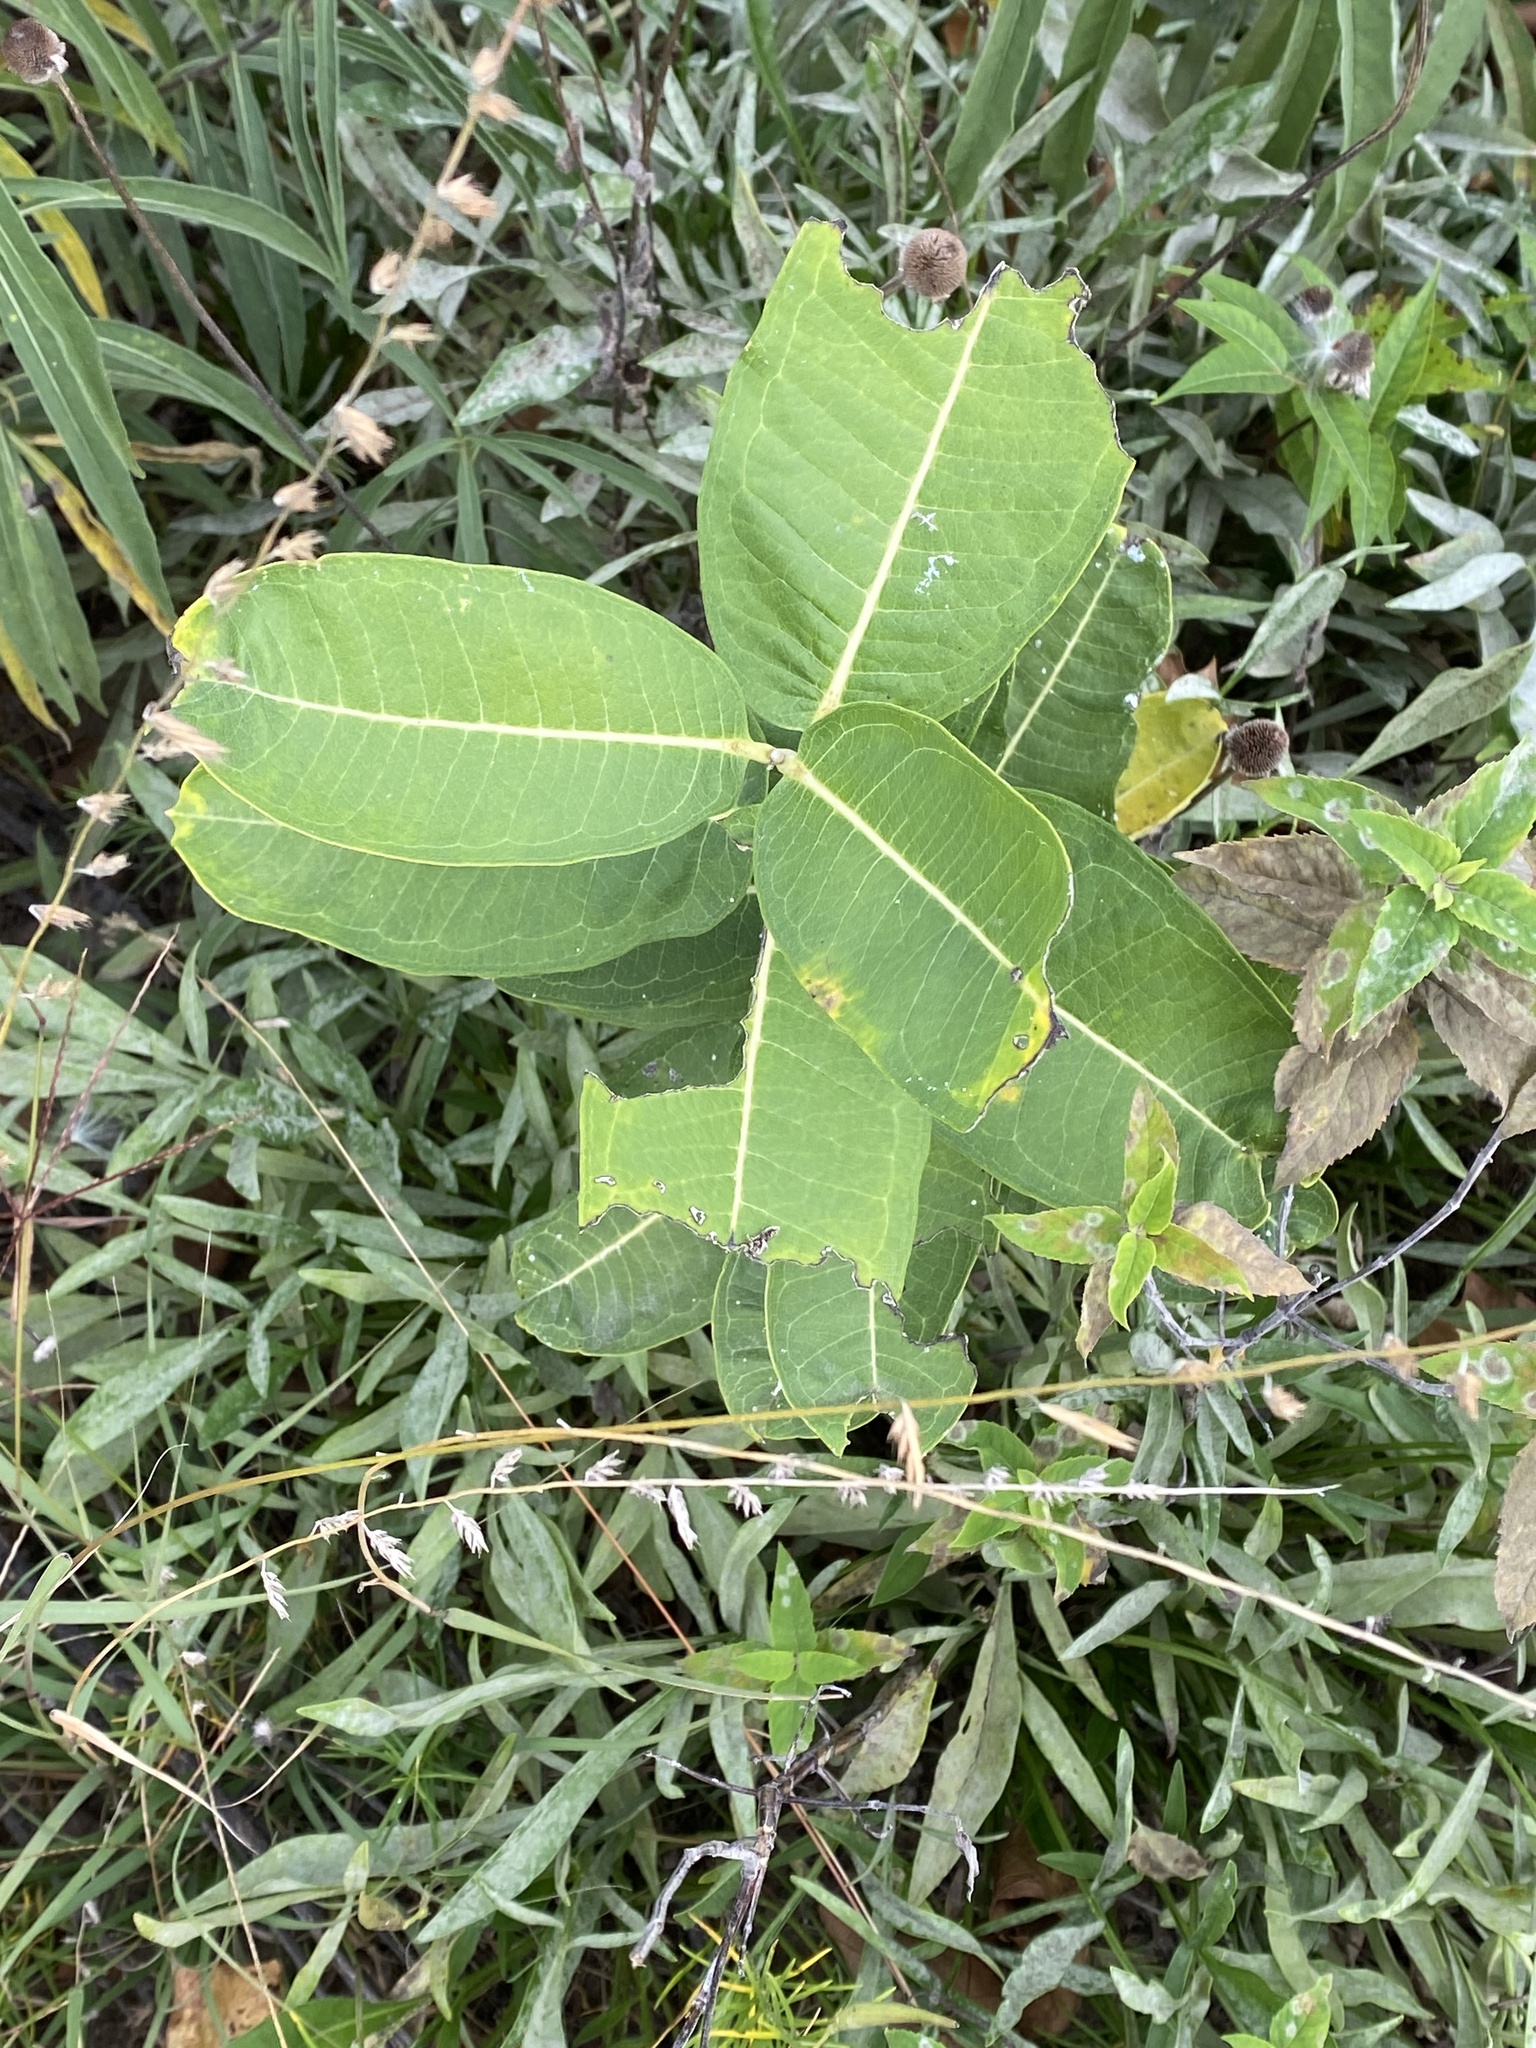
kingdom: Plantae
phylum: Tracheophyta
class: Magnoliopsida
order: Gentianales
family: Apocynaceae
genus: Asclepias
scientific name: Asclepias syriaca
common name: Common milkweed
